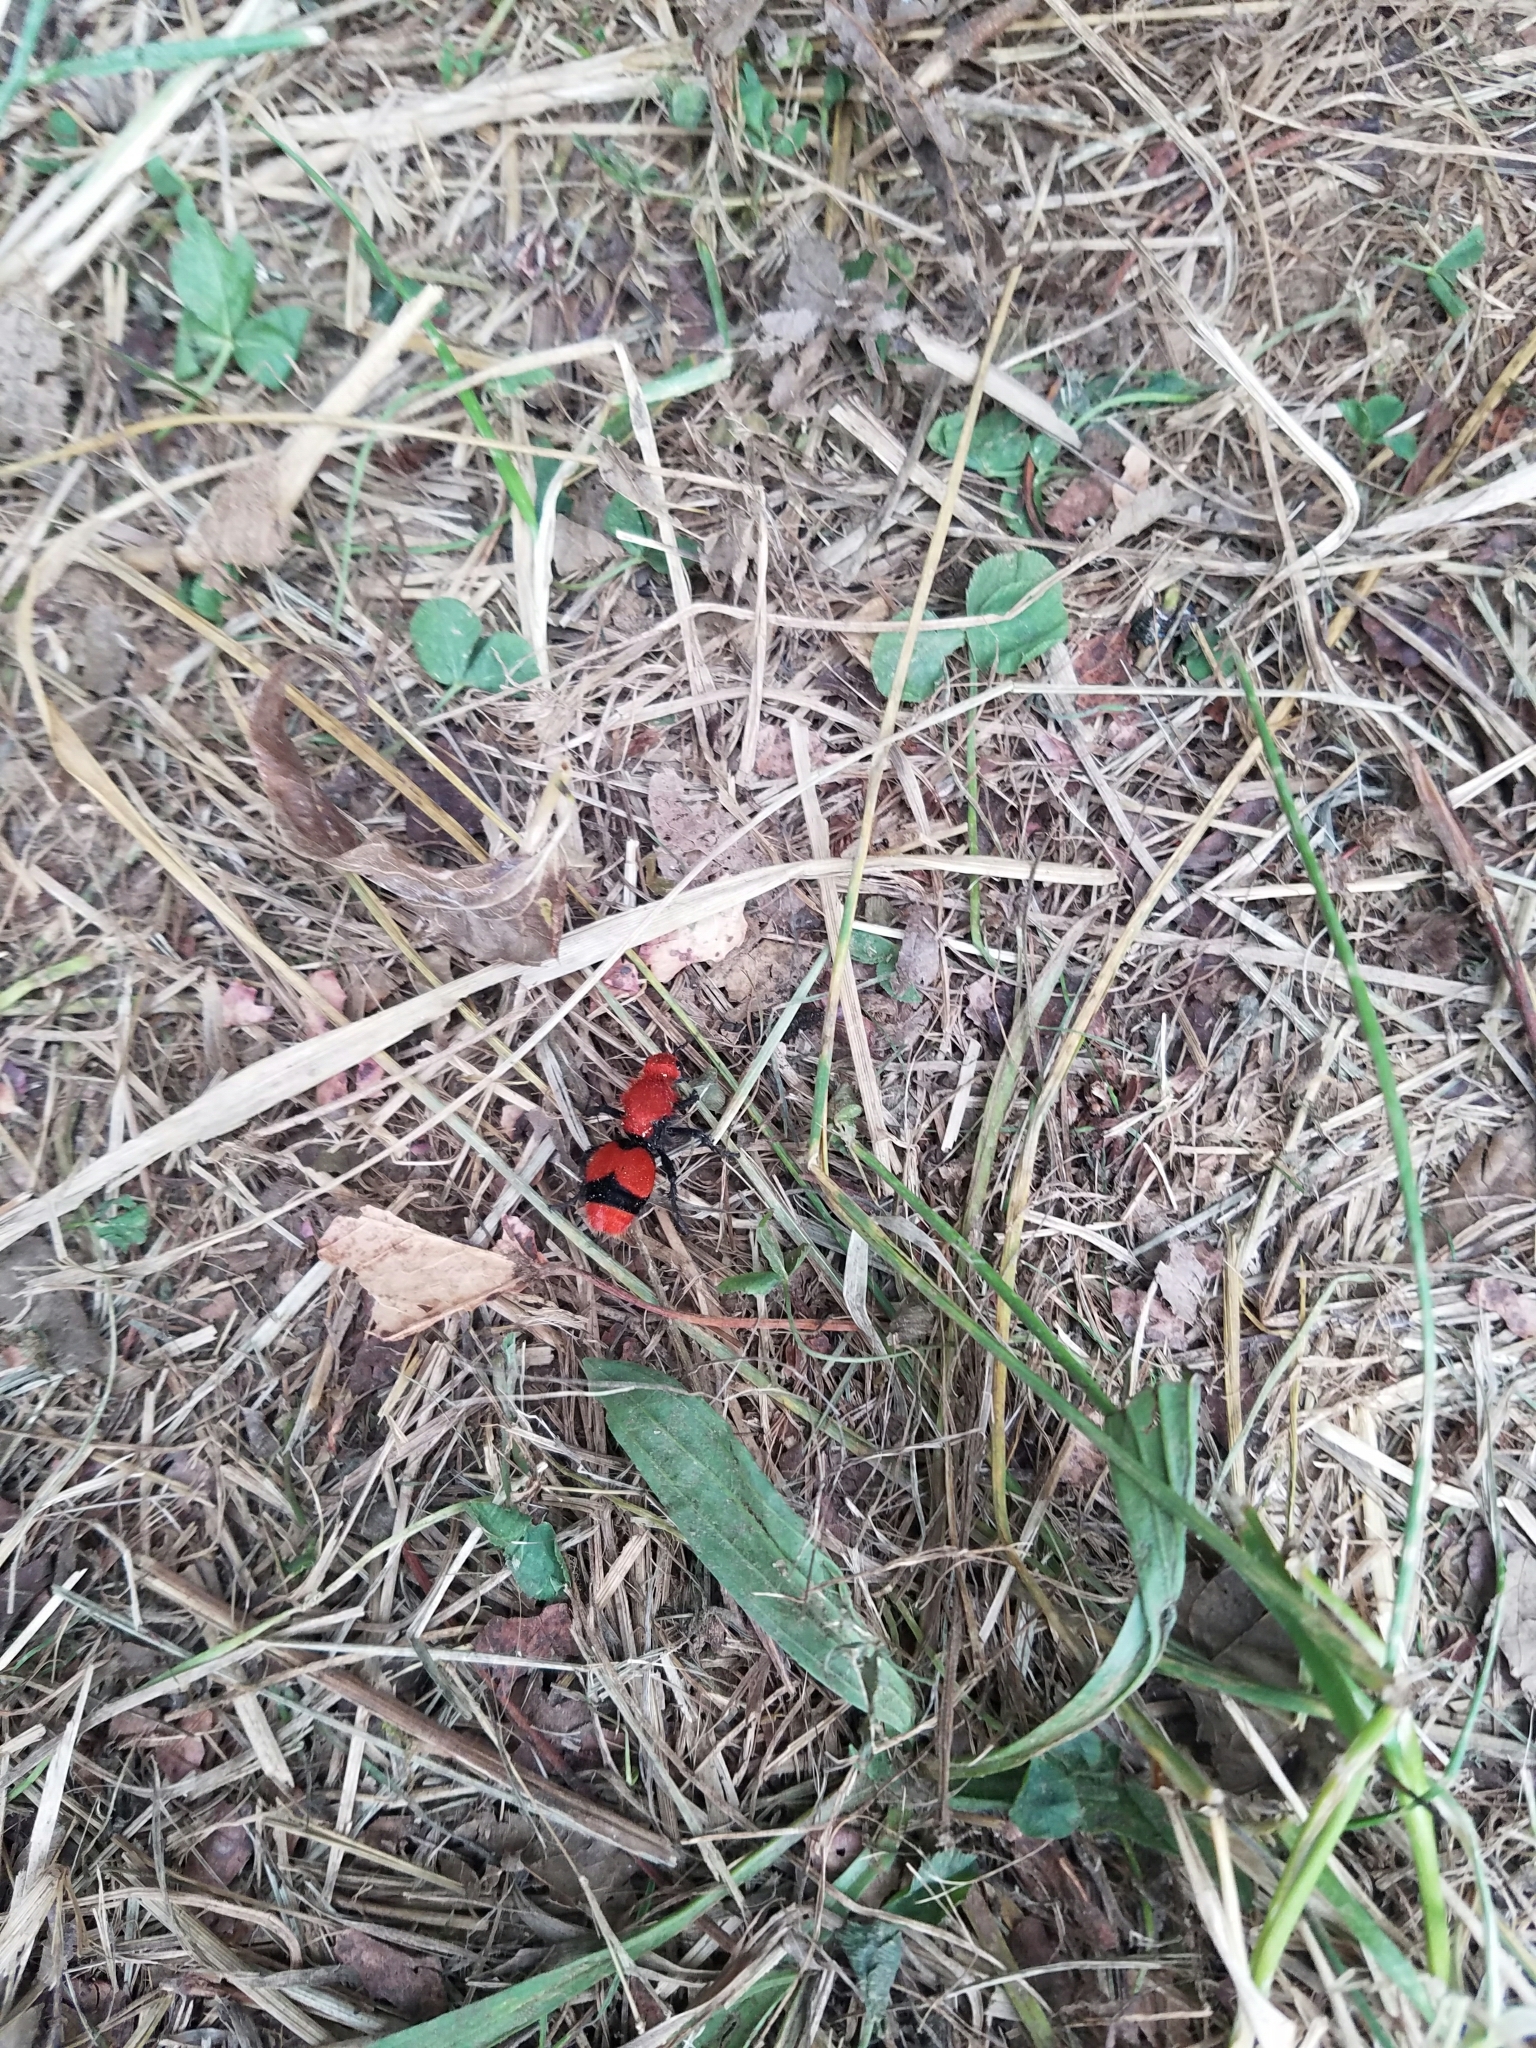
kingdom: Animalia
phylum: Arthropoda
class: Insecta
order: Hymenoptera
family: Mutillidae
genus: Dasymutilla
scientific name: Dasymutilla occidentalis
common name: Common eastern velvet ant
